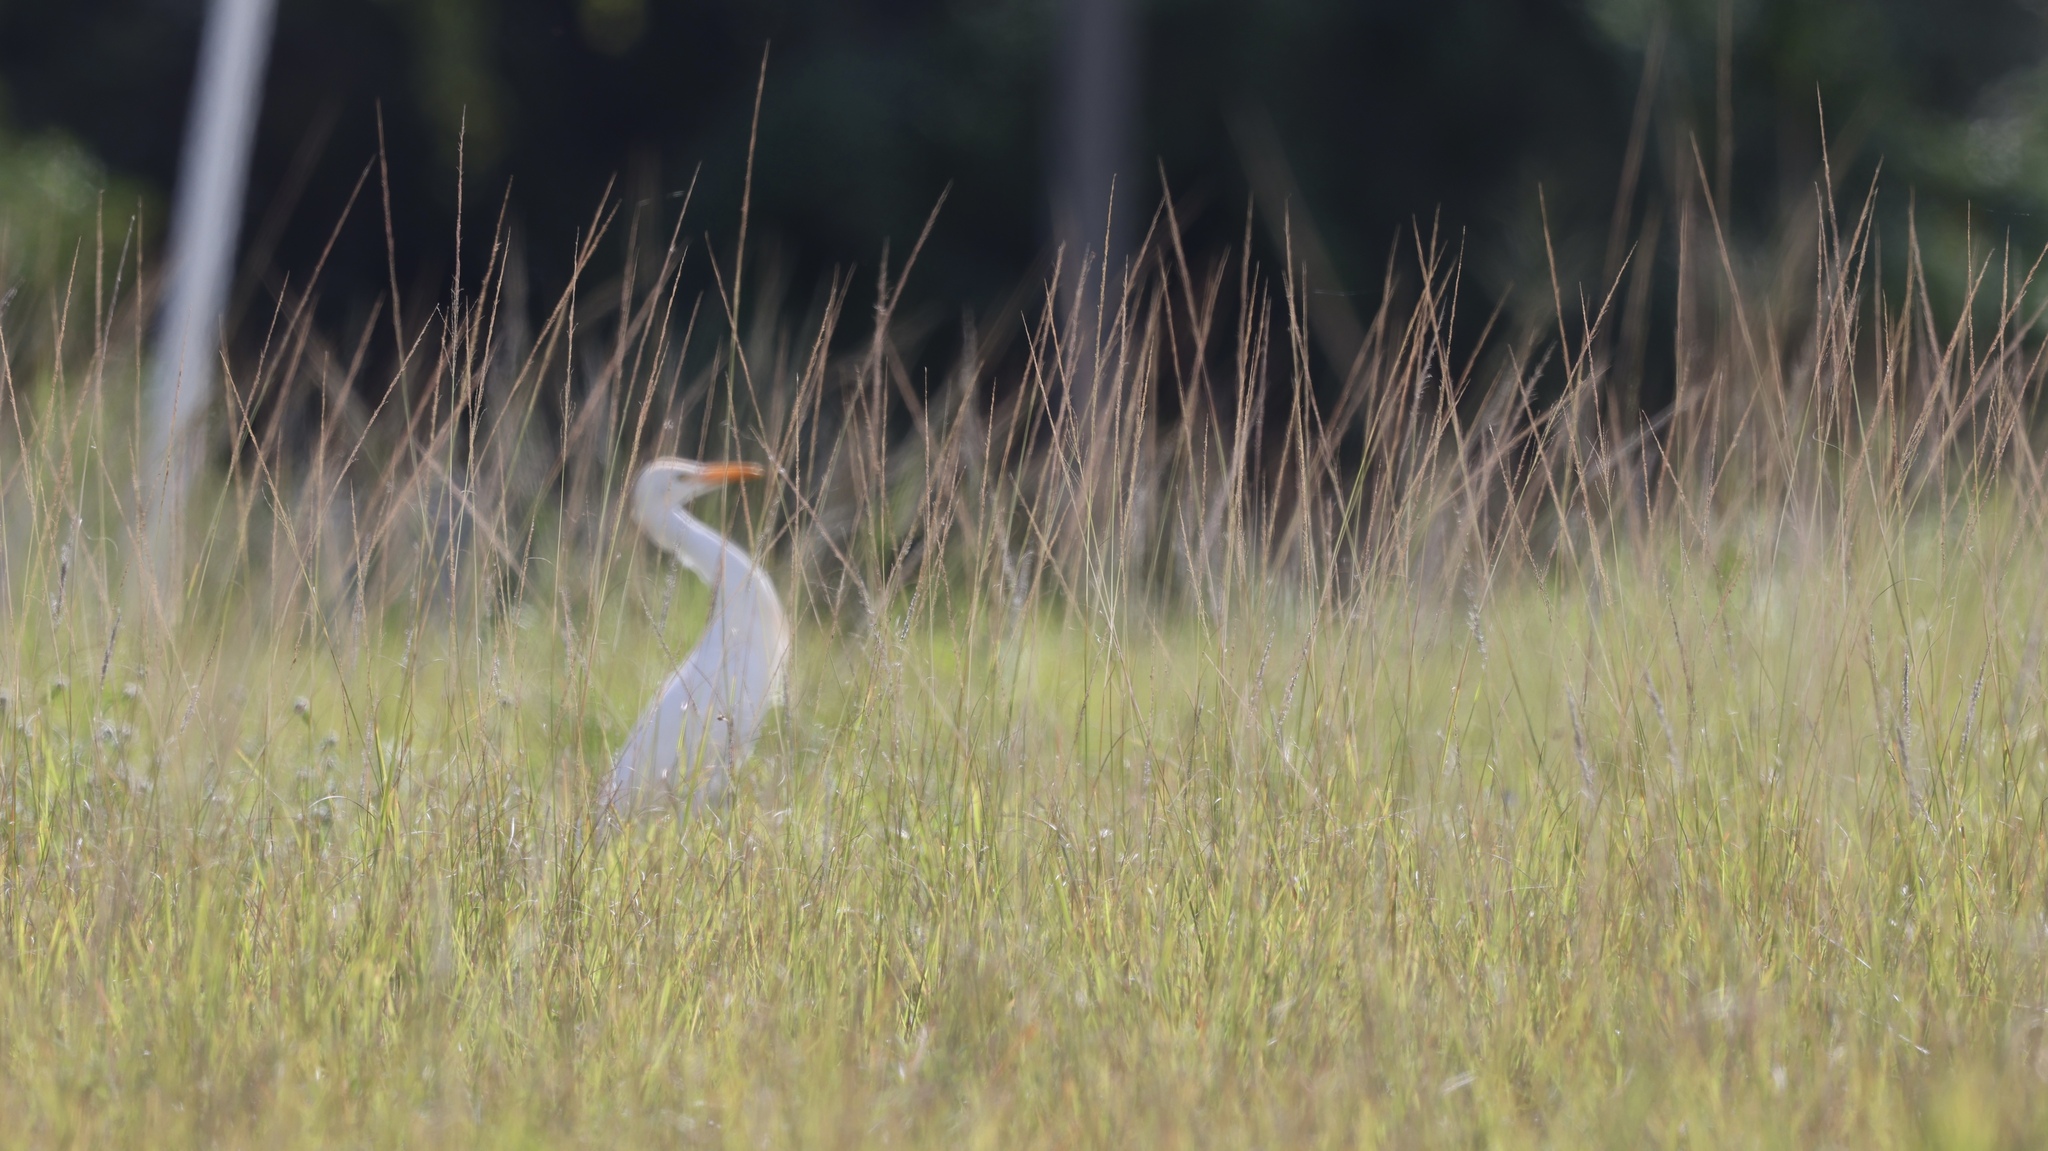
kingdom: Animalia
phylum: Chordata
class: Aves
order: Pelecaniformes
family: Ardeidae
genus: Bubulcus
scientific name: Bubulcus ibis
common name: Cattle egret
